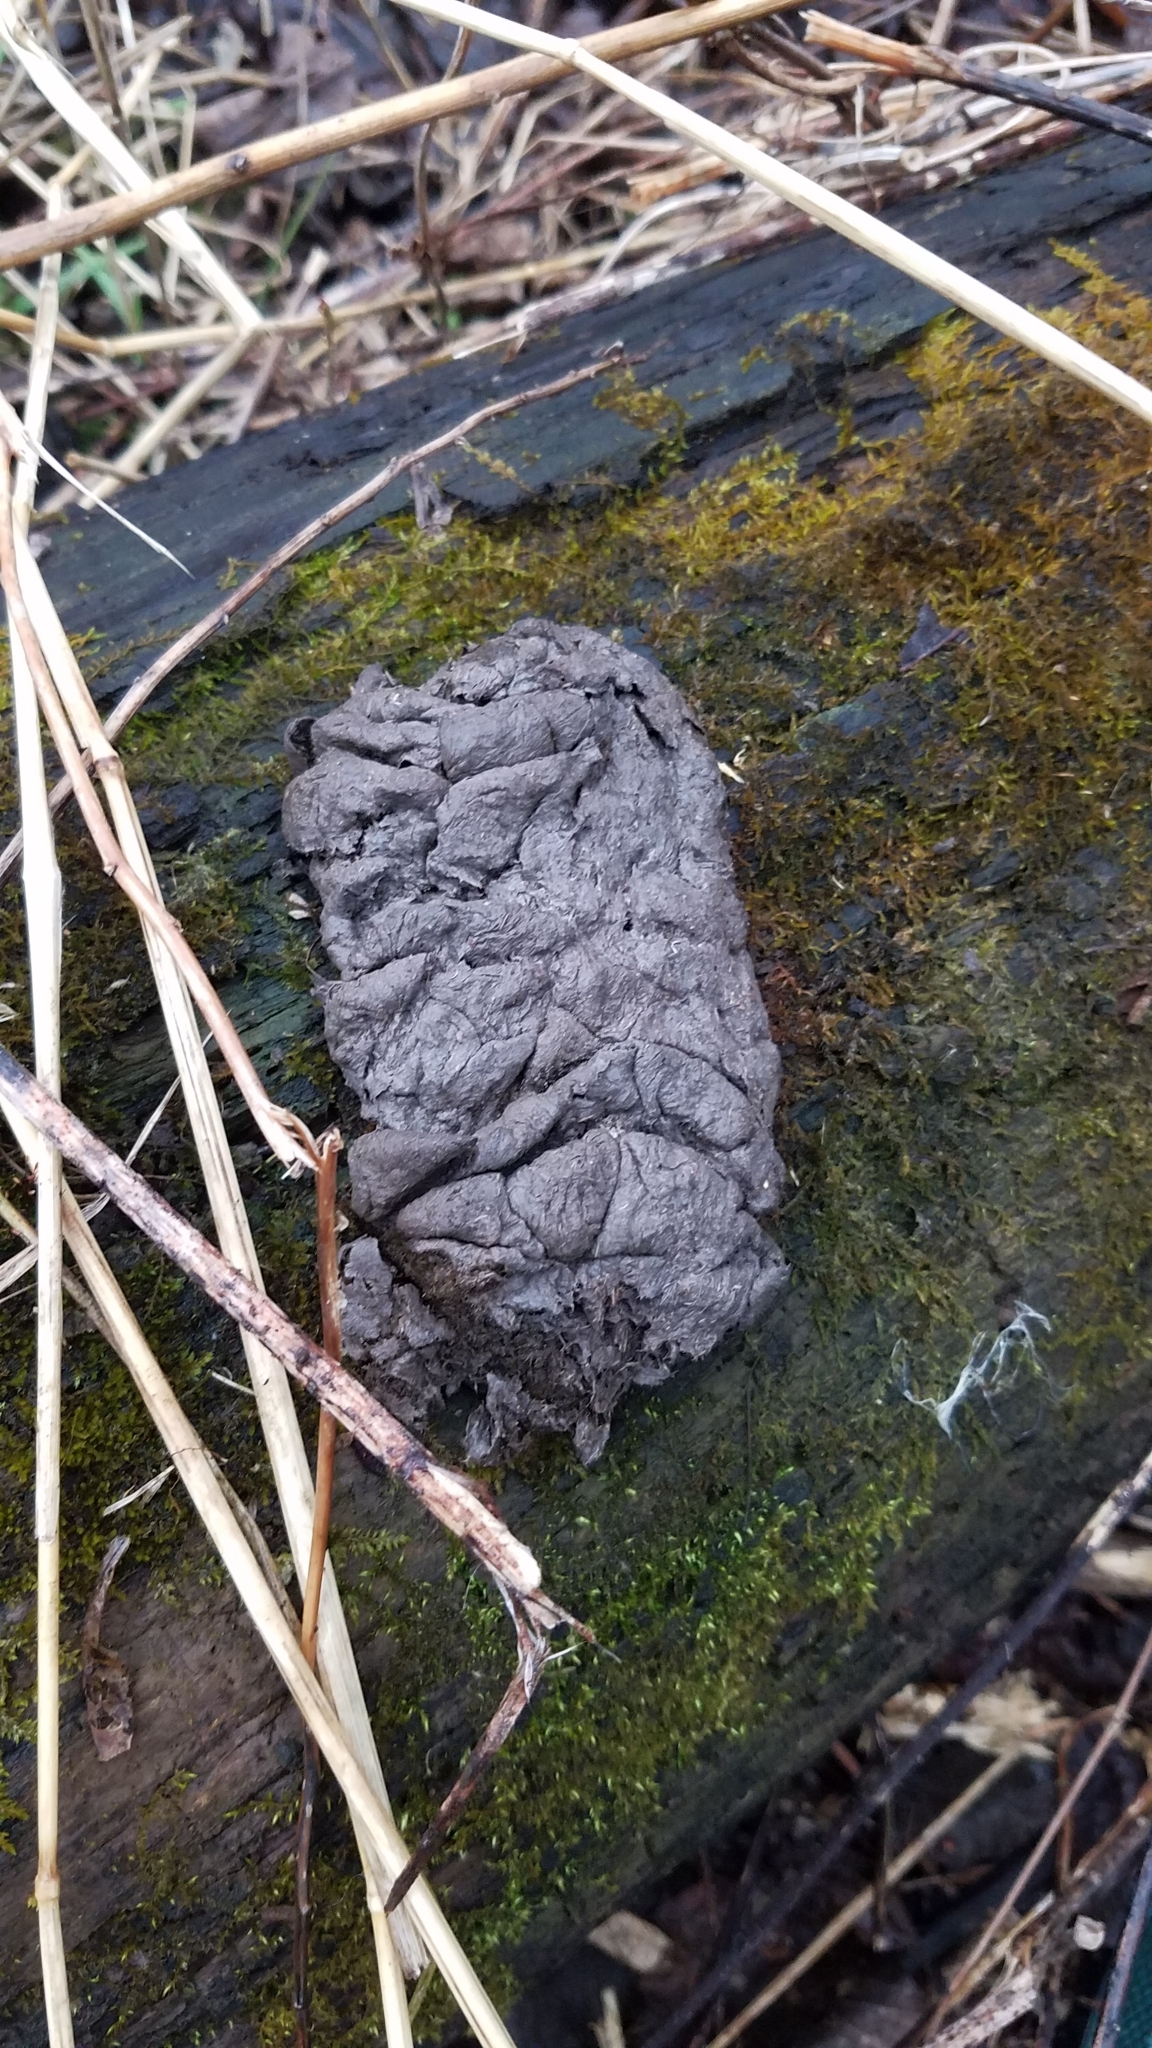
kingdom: Animalia
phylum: Chordata
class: Mammalia
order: Artiodactyla
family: Cervidae
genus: Odocoileus
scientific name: Odocoileus virginianus
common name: White-tailed deer
